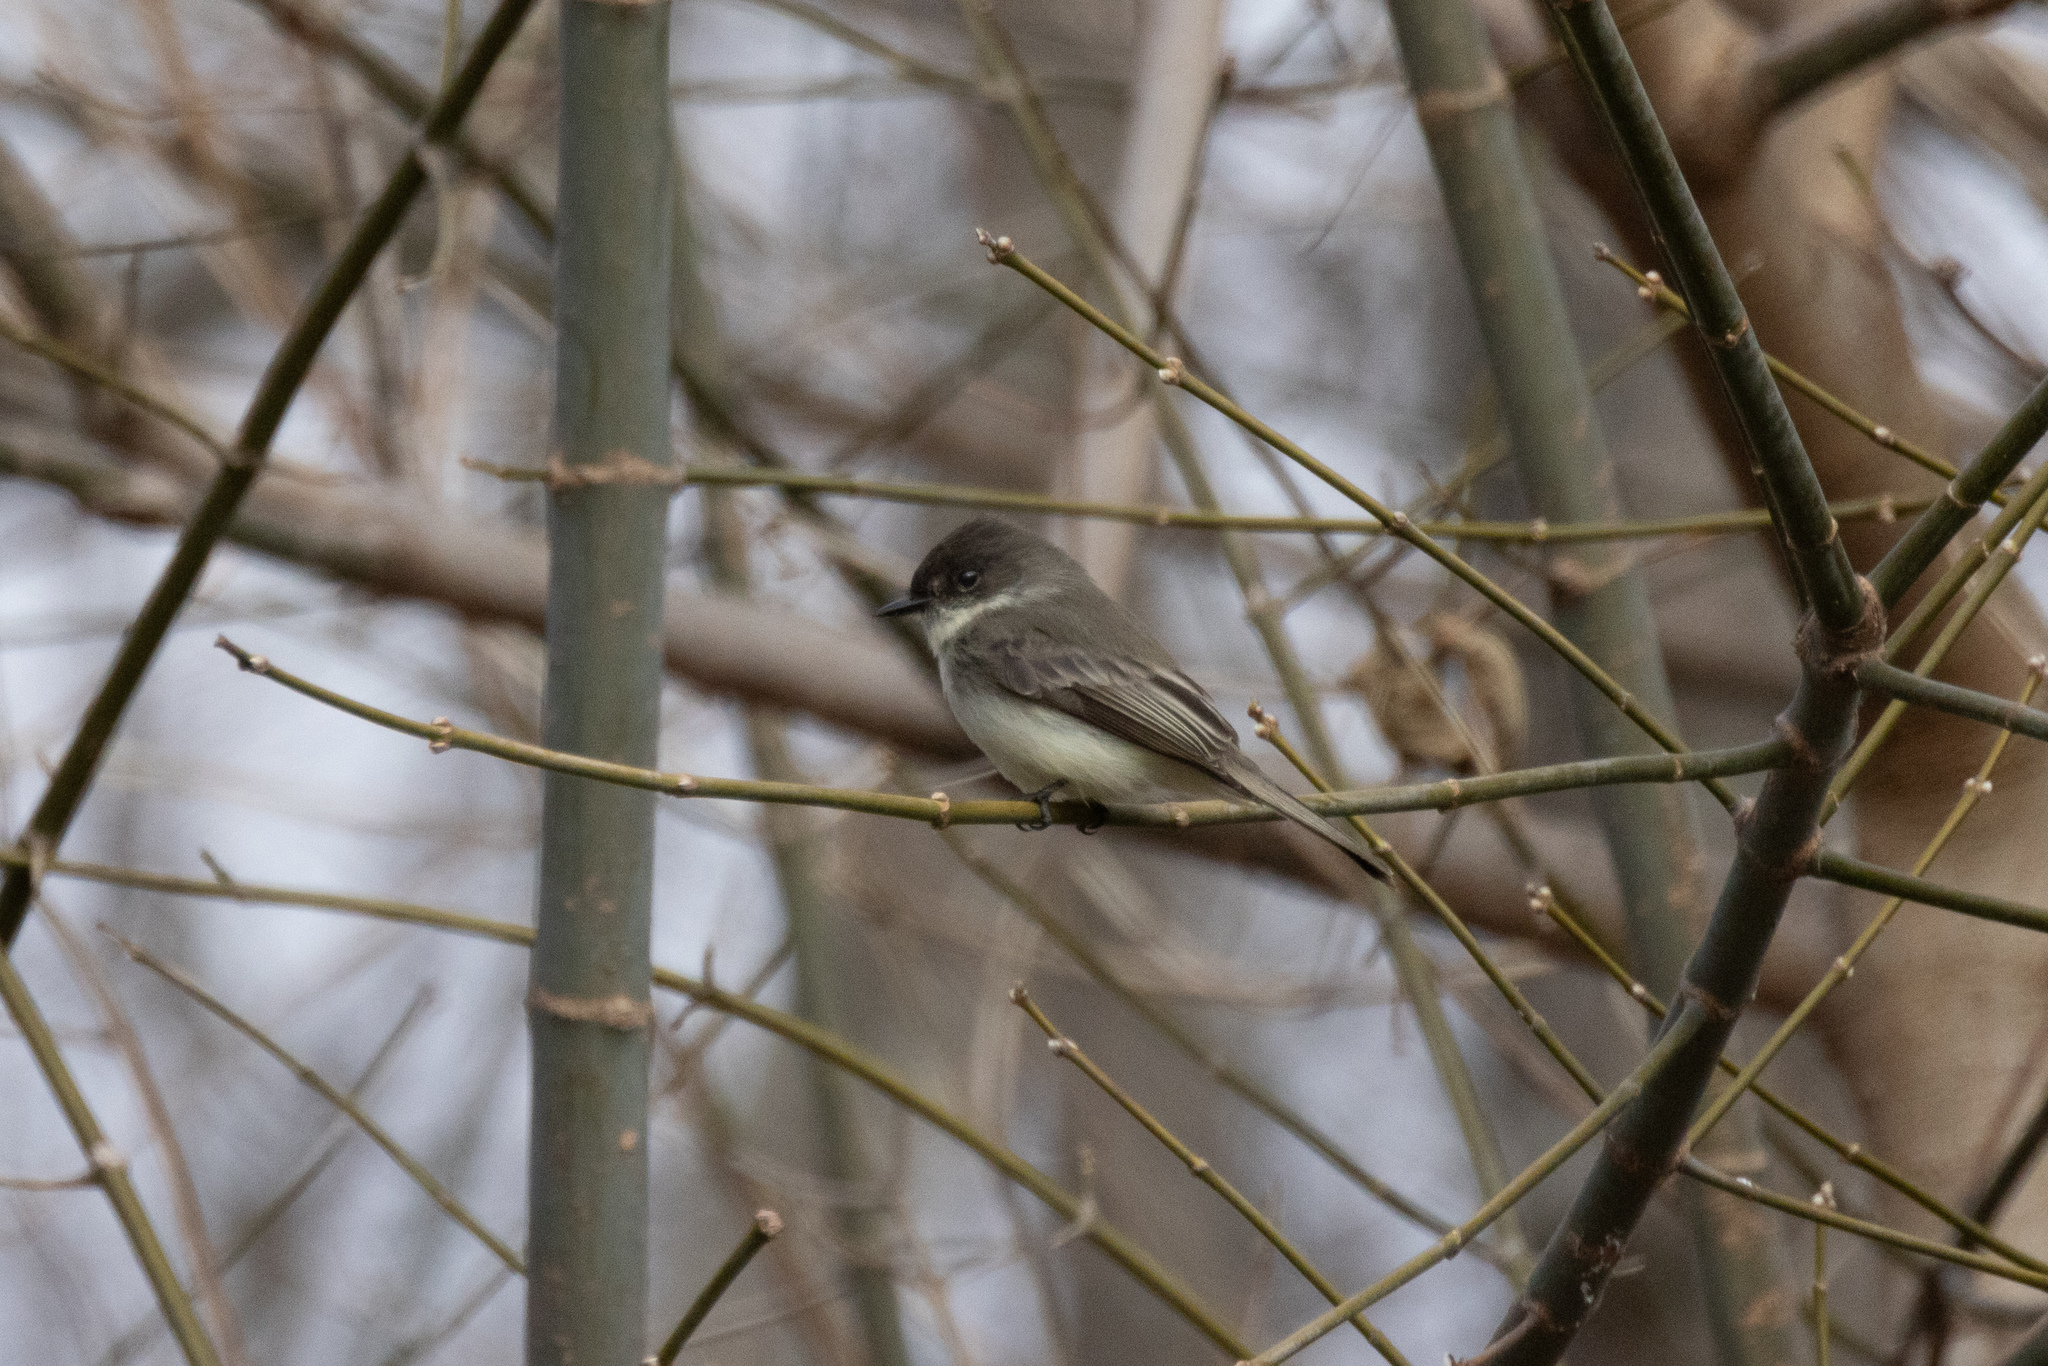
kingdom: Animalia
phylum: Chordata
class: Aves
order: Passeriformes
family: Tyrannidae
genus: Sayornis
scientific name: Sayornis phoebe
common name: Eastern phoebe
